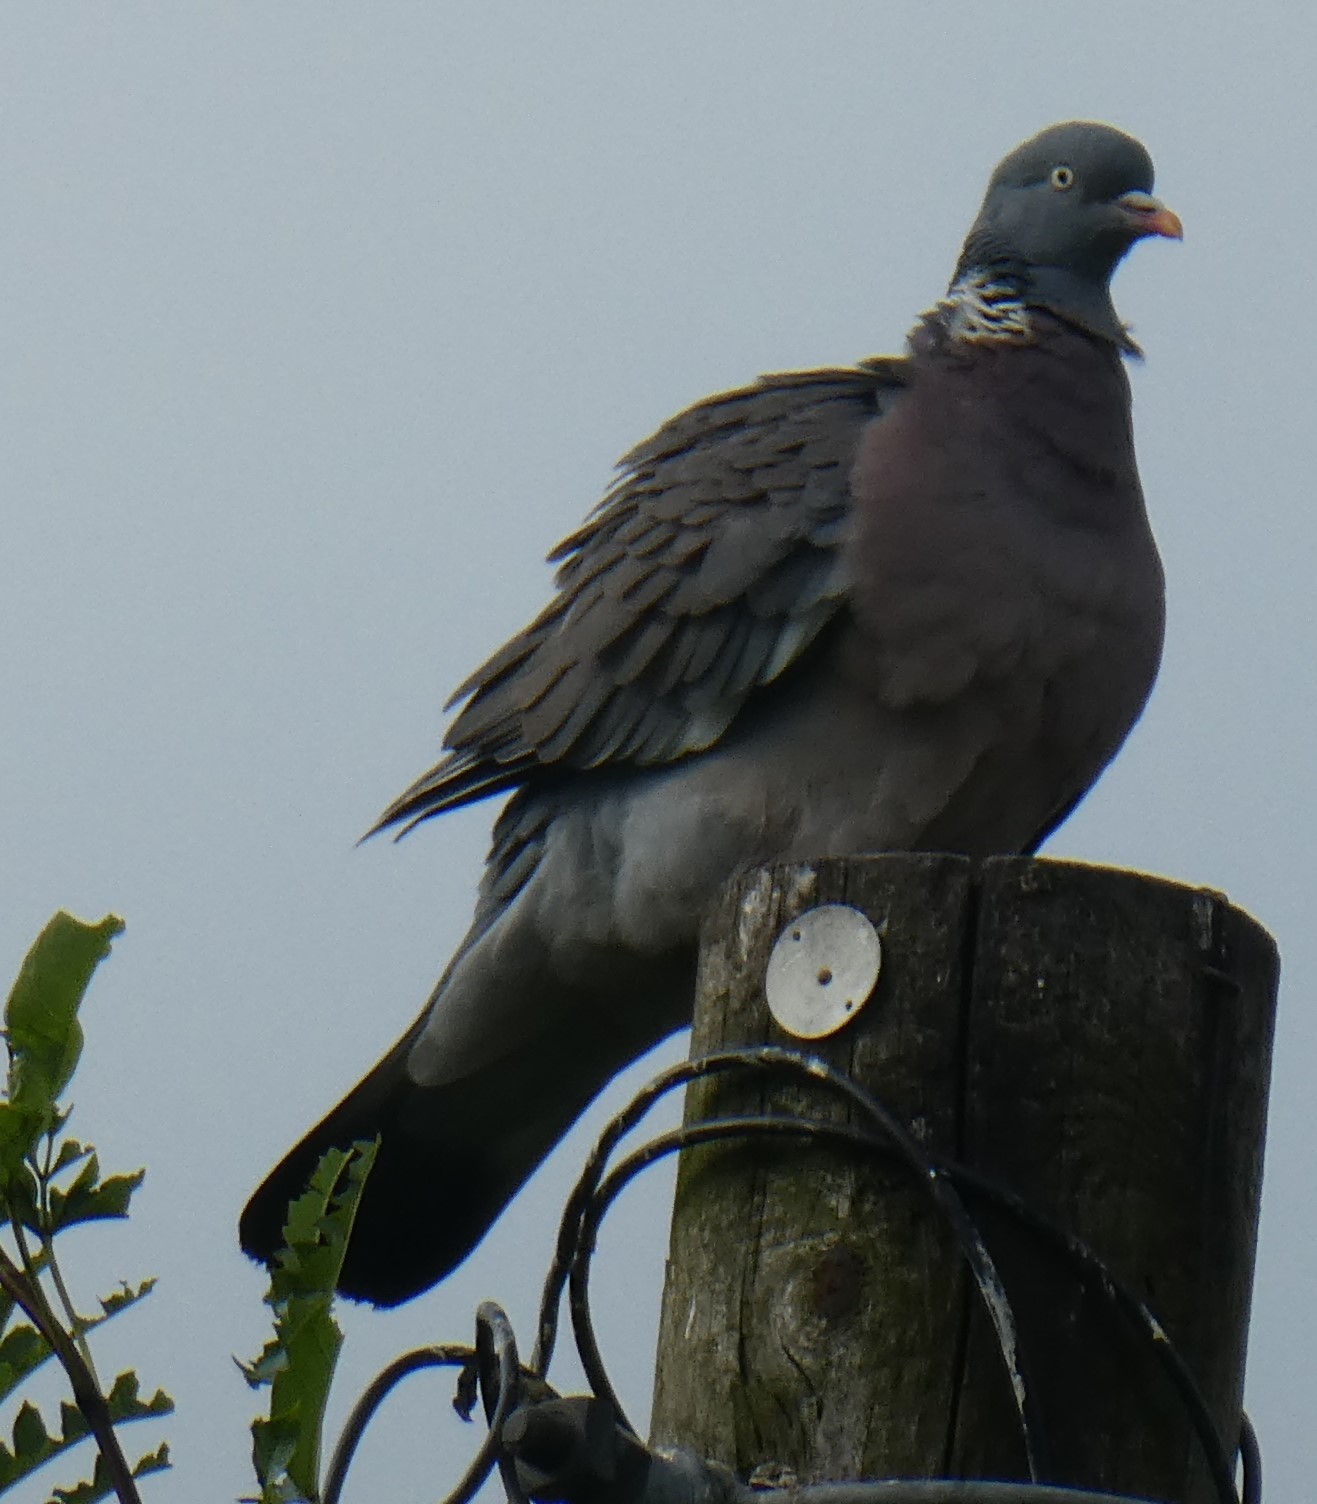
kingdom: Animalia
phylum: Chordata
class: Aves
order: Columbiformes
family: Columbidae
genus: Columba
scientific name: Columba palumbus
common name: Common wood pigeon
